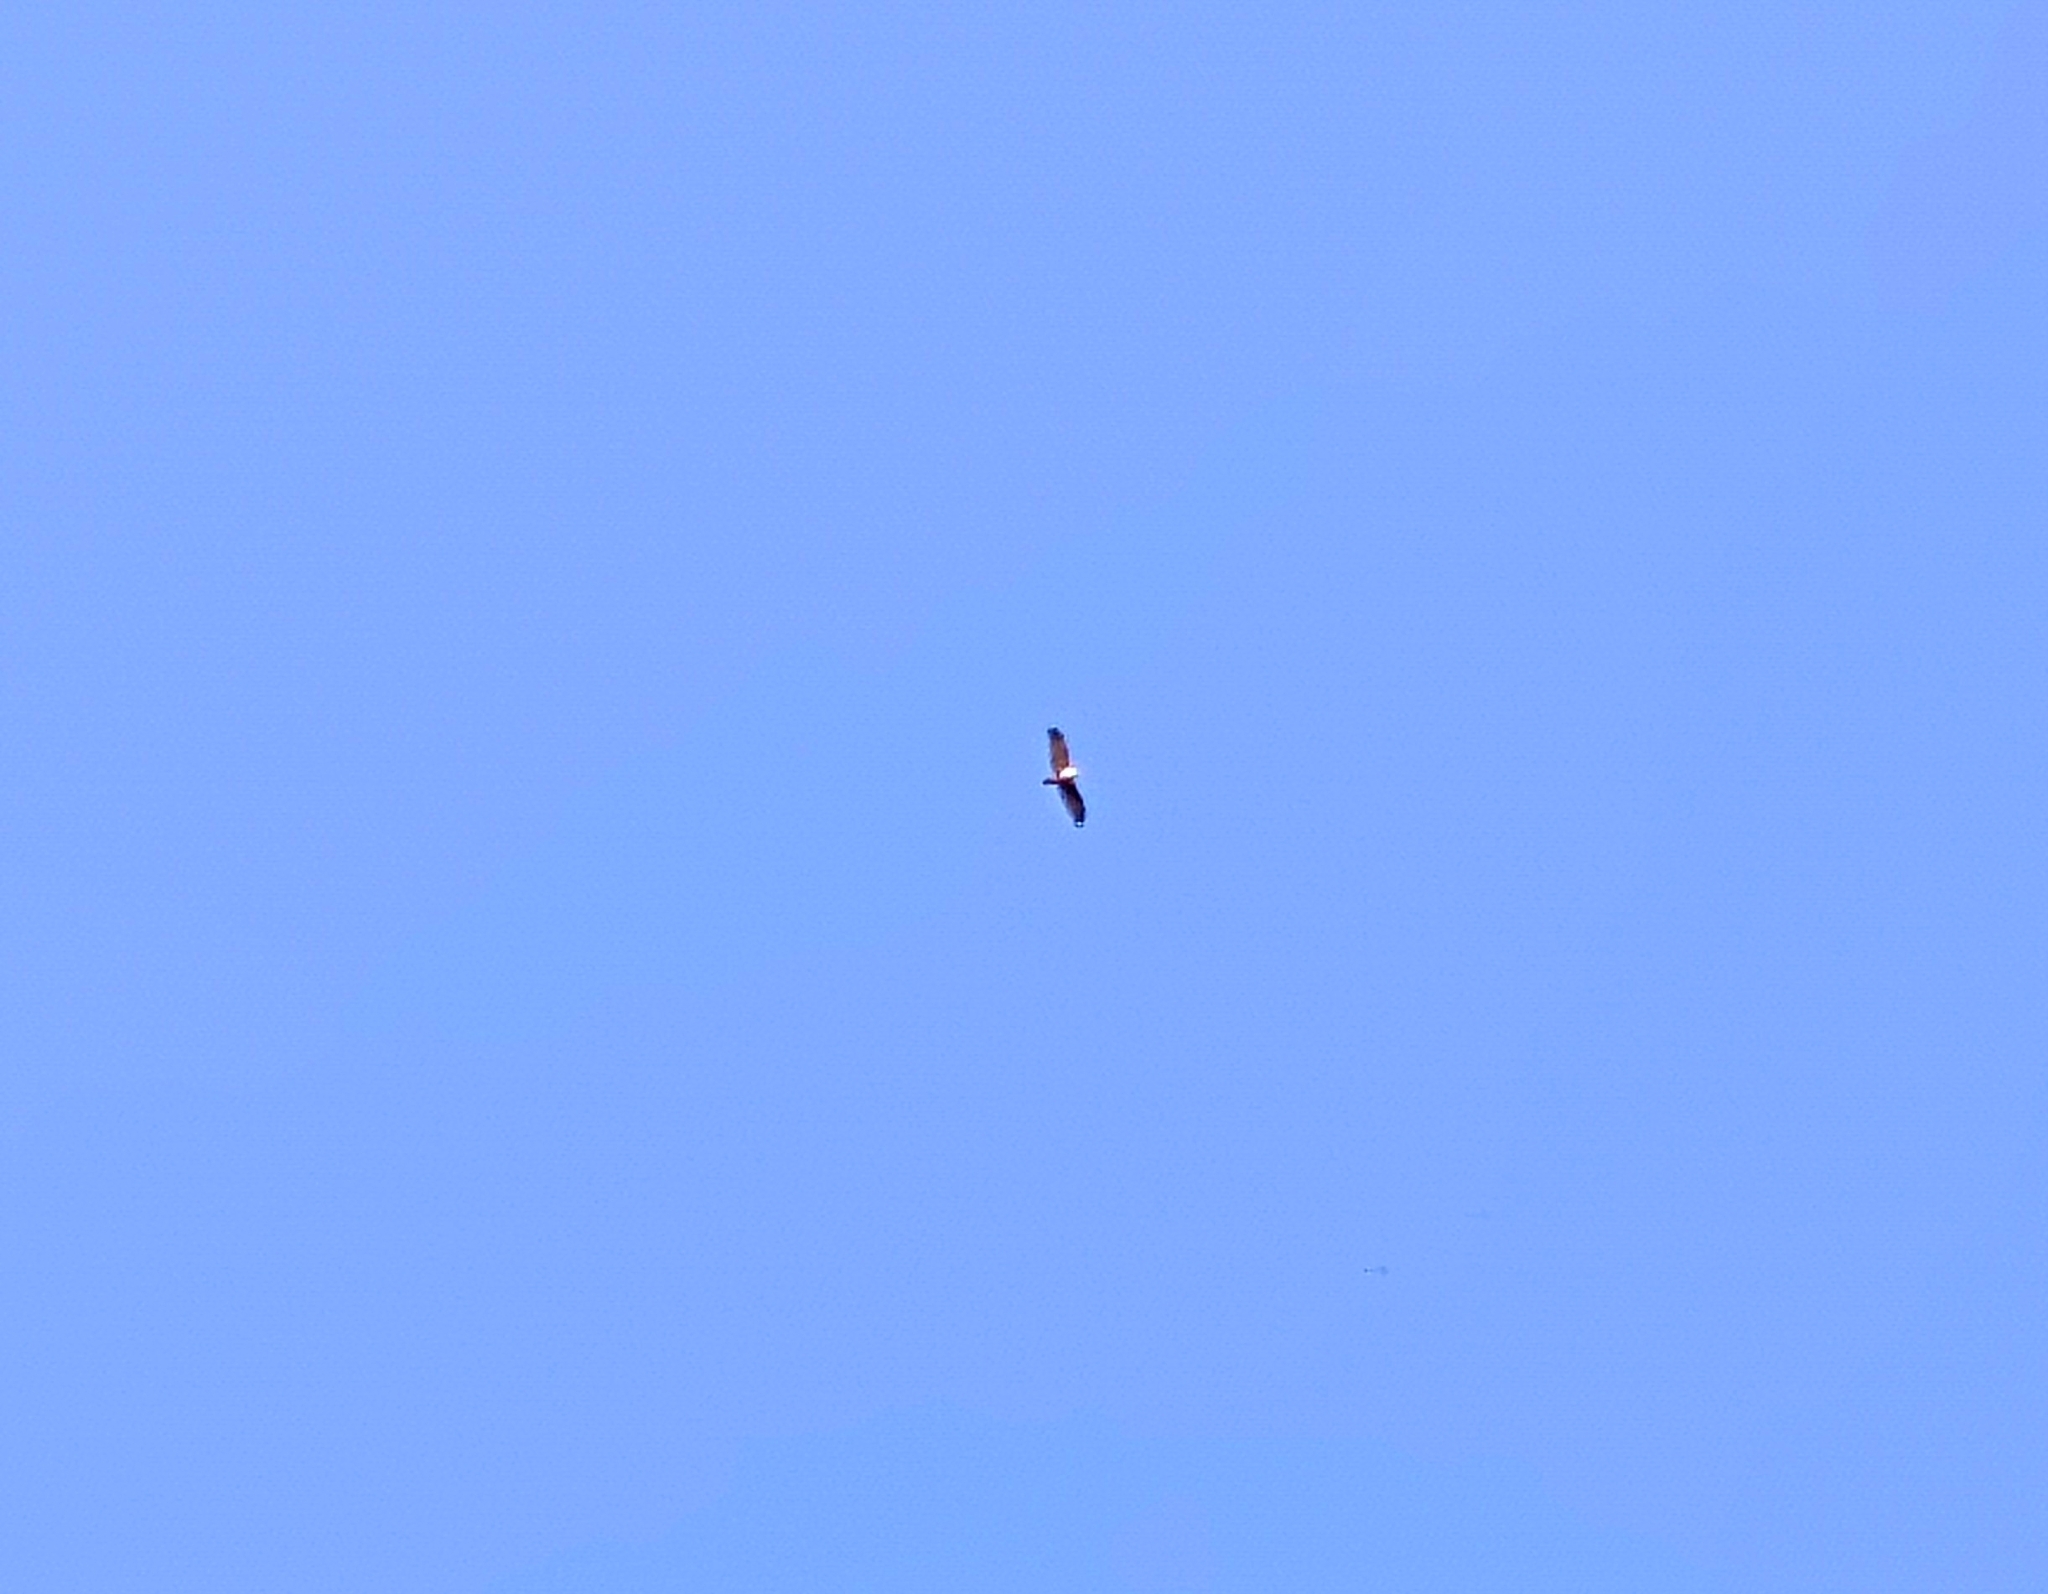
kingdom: Animalia
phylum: Chordata
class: Aves
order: Accipitriformes
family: Accipitridae
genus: Haliastur
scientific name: Haliastur indus
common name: Brahminy kite
